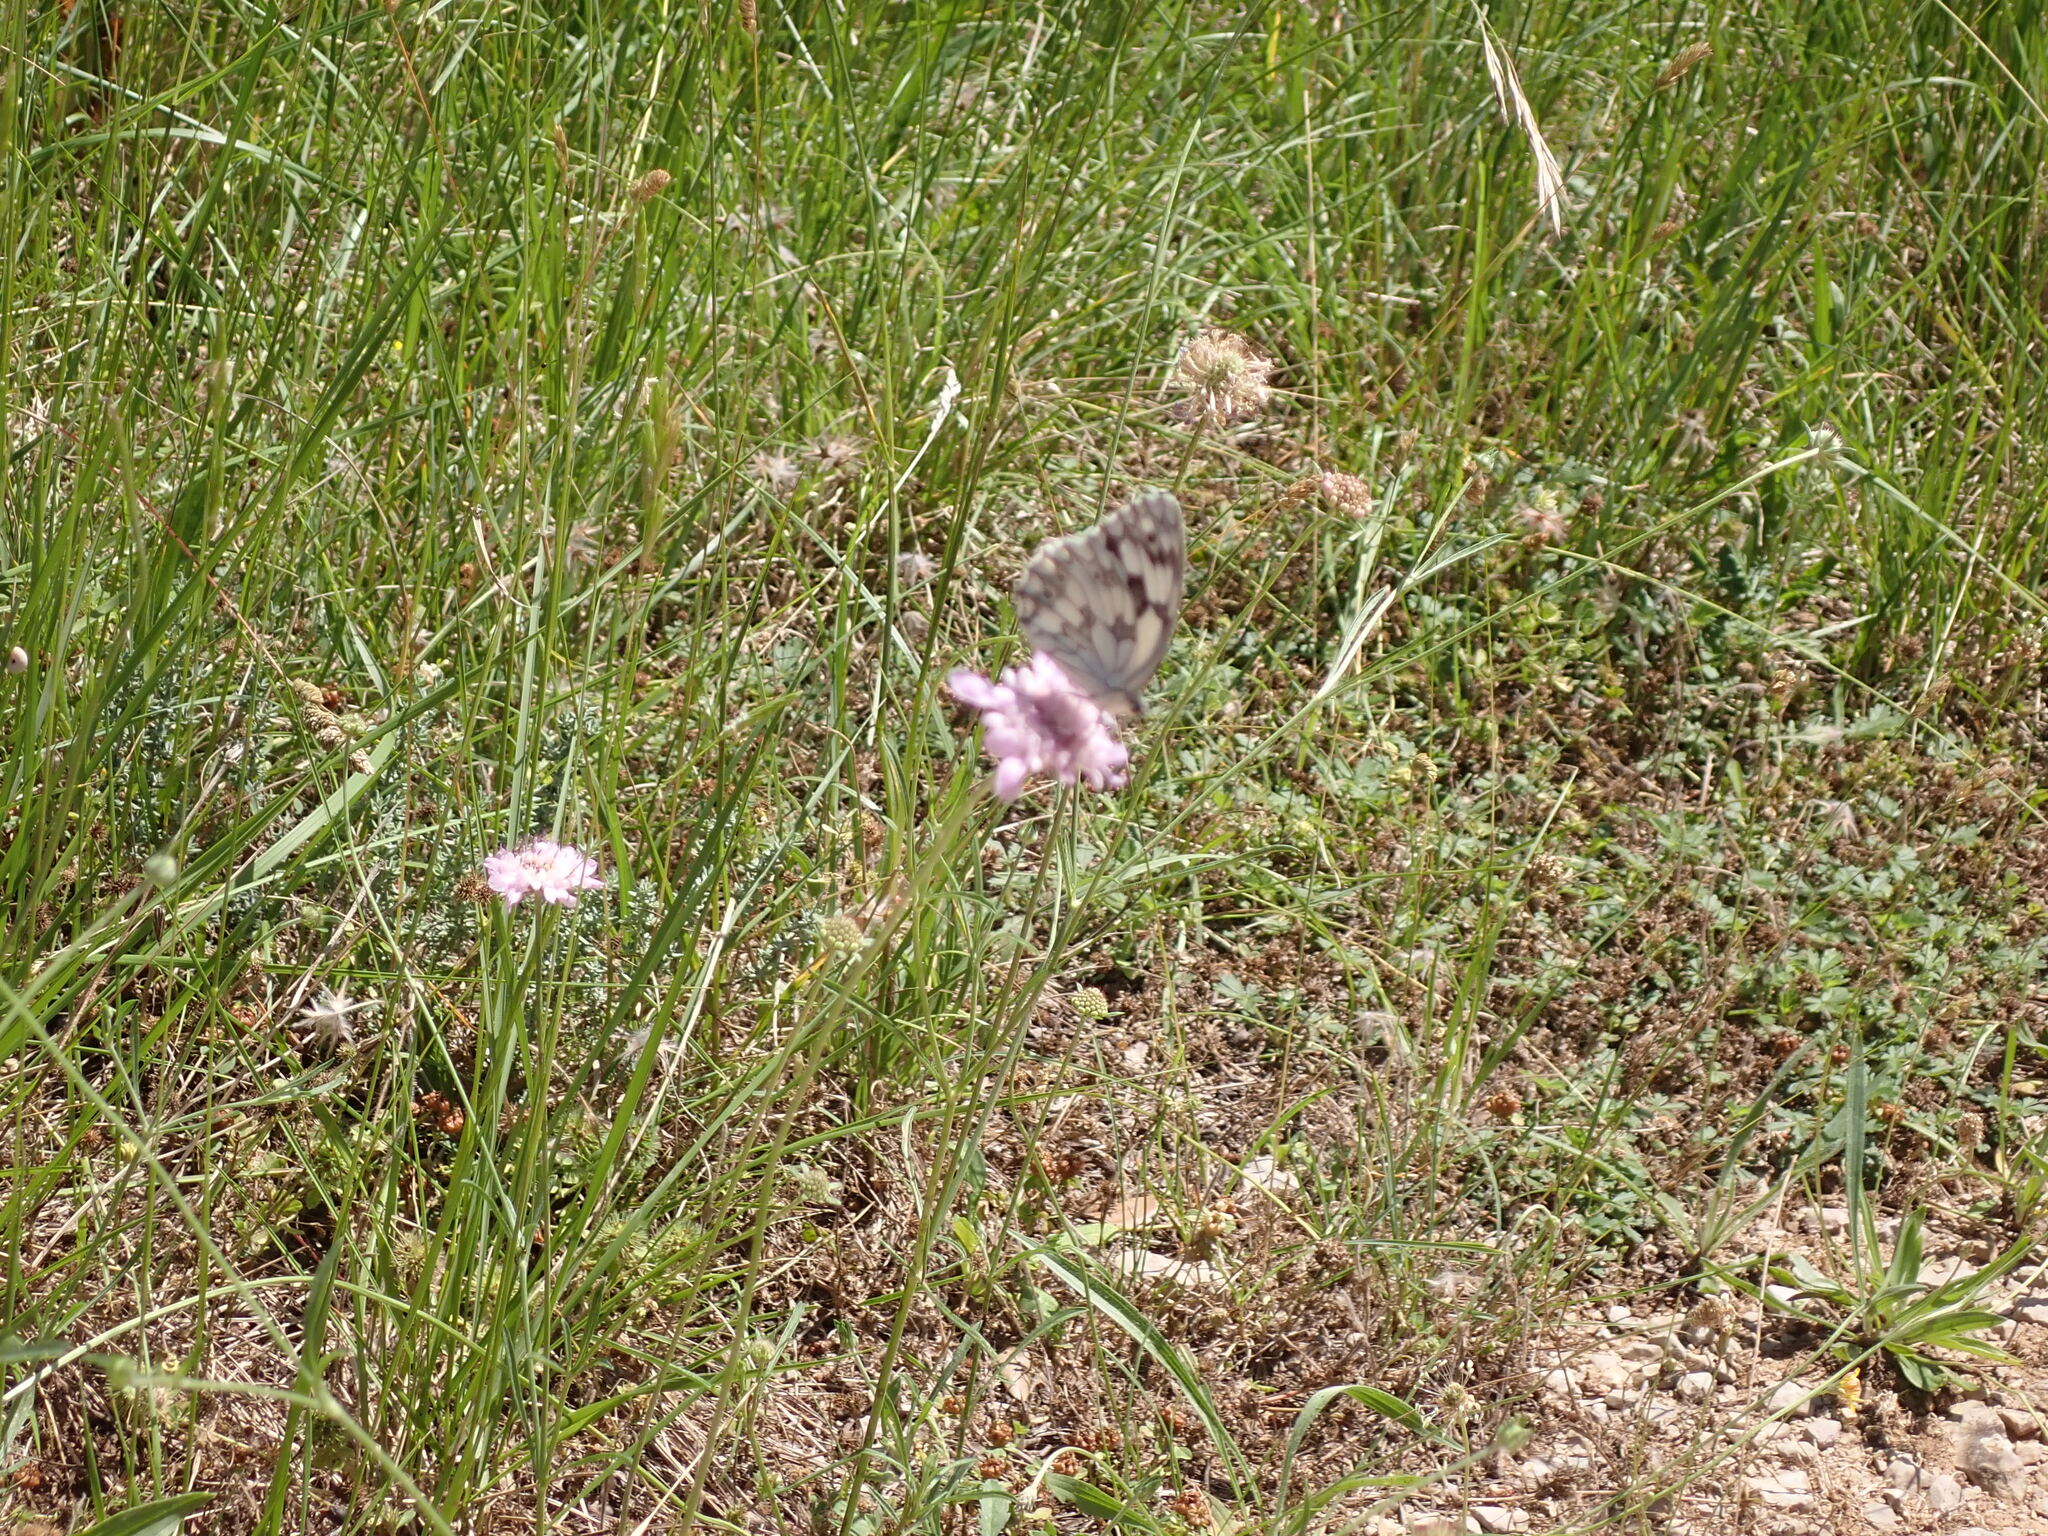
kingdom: Animalia
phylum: Arthropoda
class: Insecta
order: Lepidoptera
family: Nymphalidae
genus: Melanargia
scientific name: Melanargia lachesis
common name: Iberian marbled white
